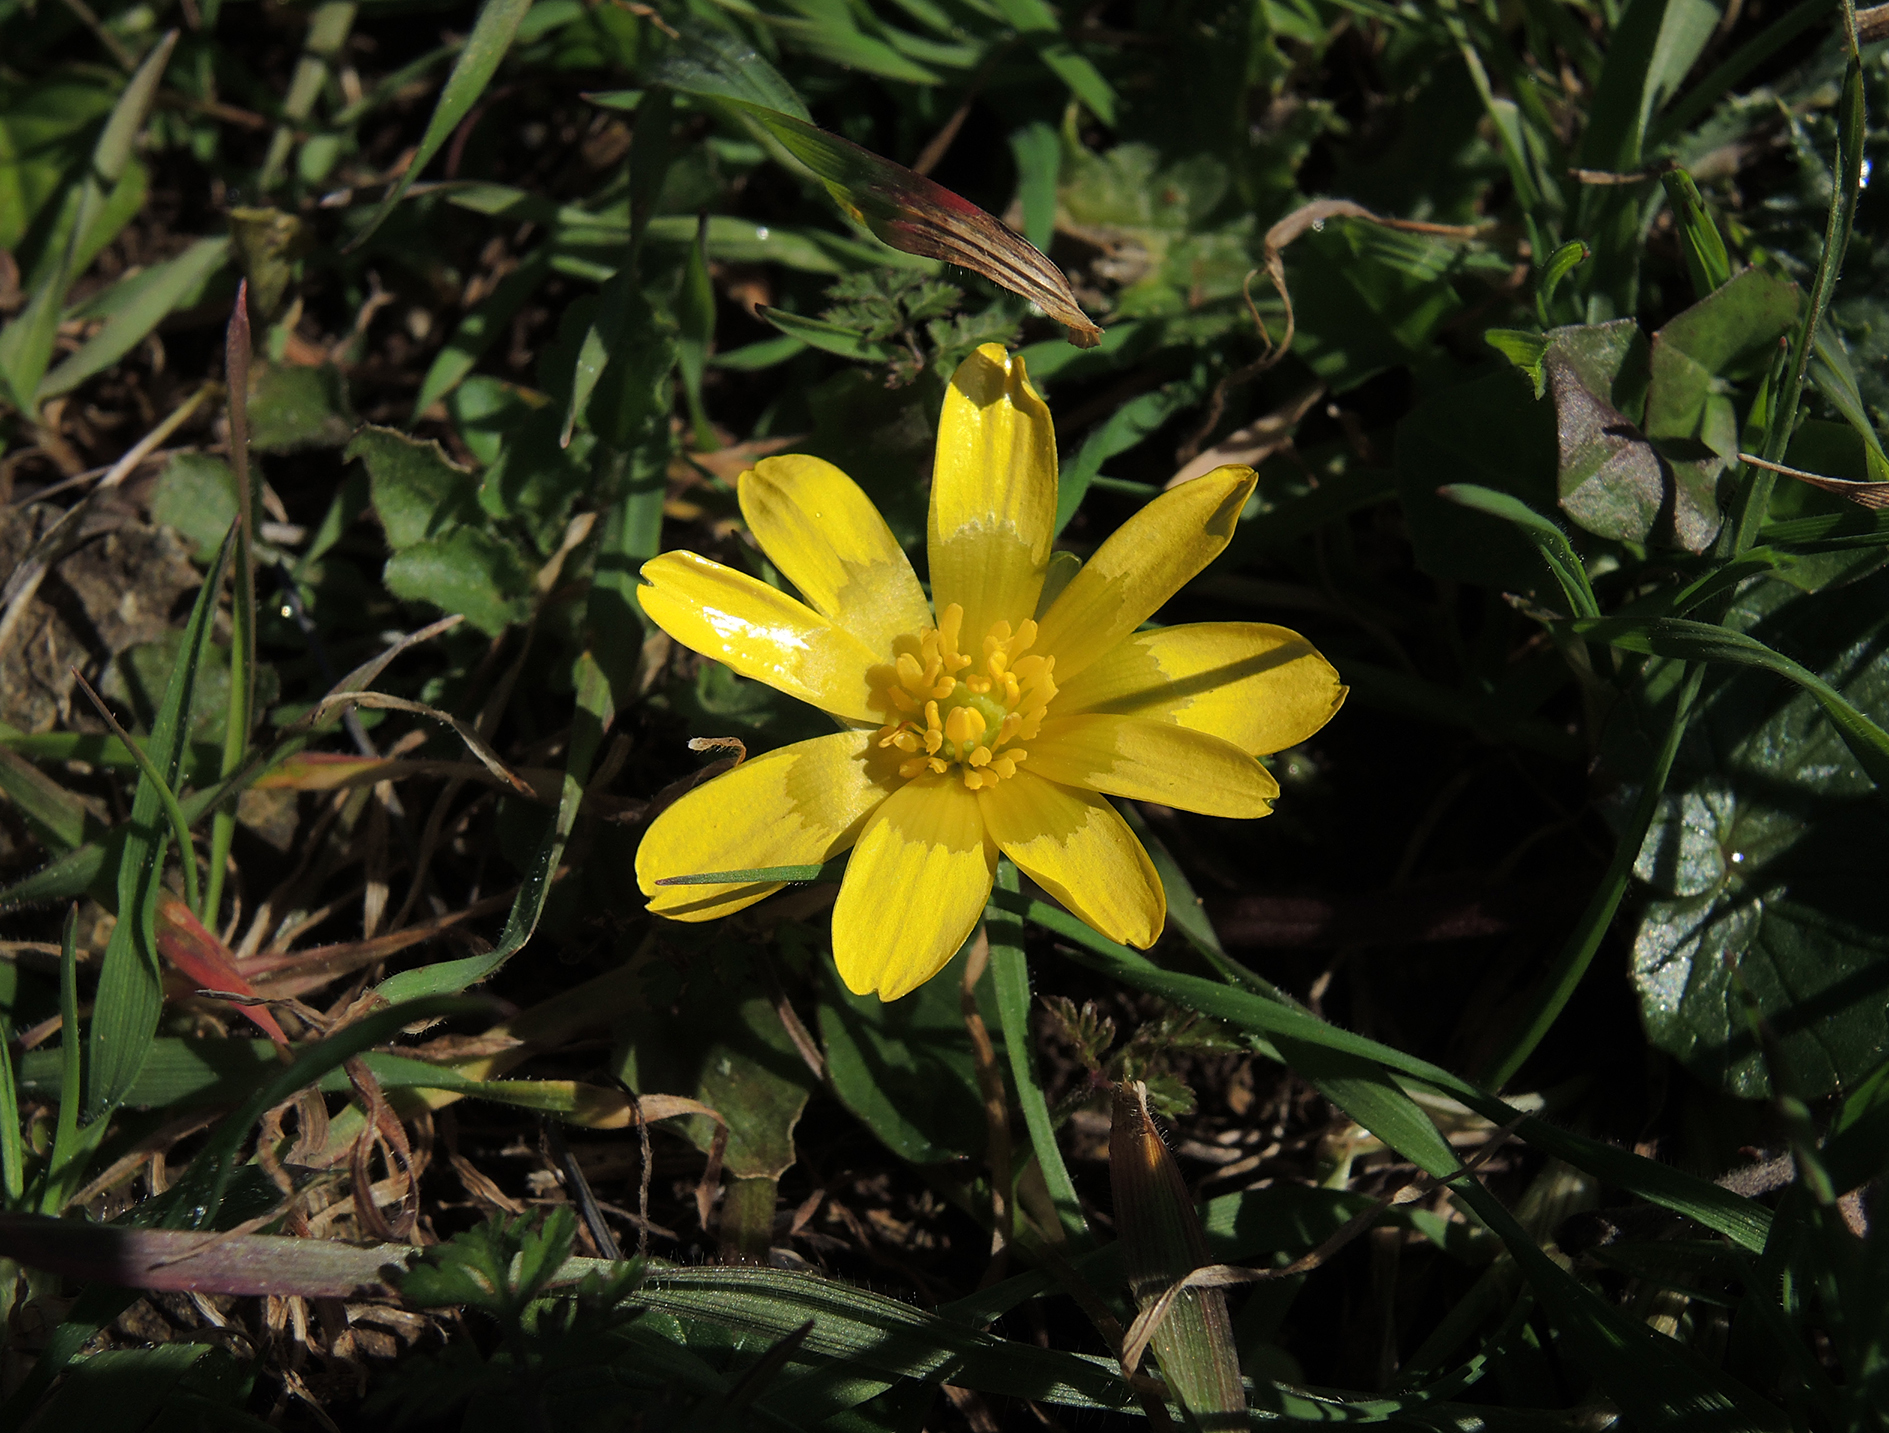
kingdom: Plantae
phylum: Tracheophyta
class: Magnoliopsida
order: Ranunculales
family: Ranunculaceae
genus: Ficaria
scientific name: Ficaria verna
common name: Lesser celandine
